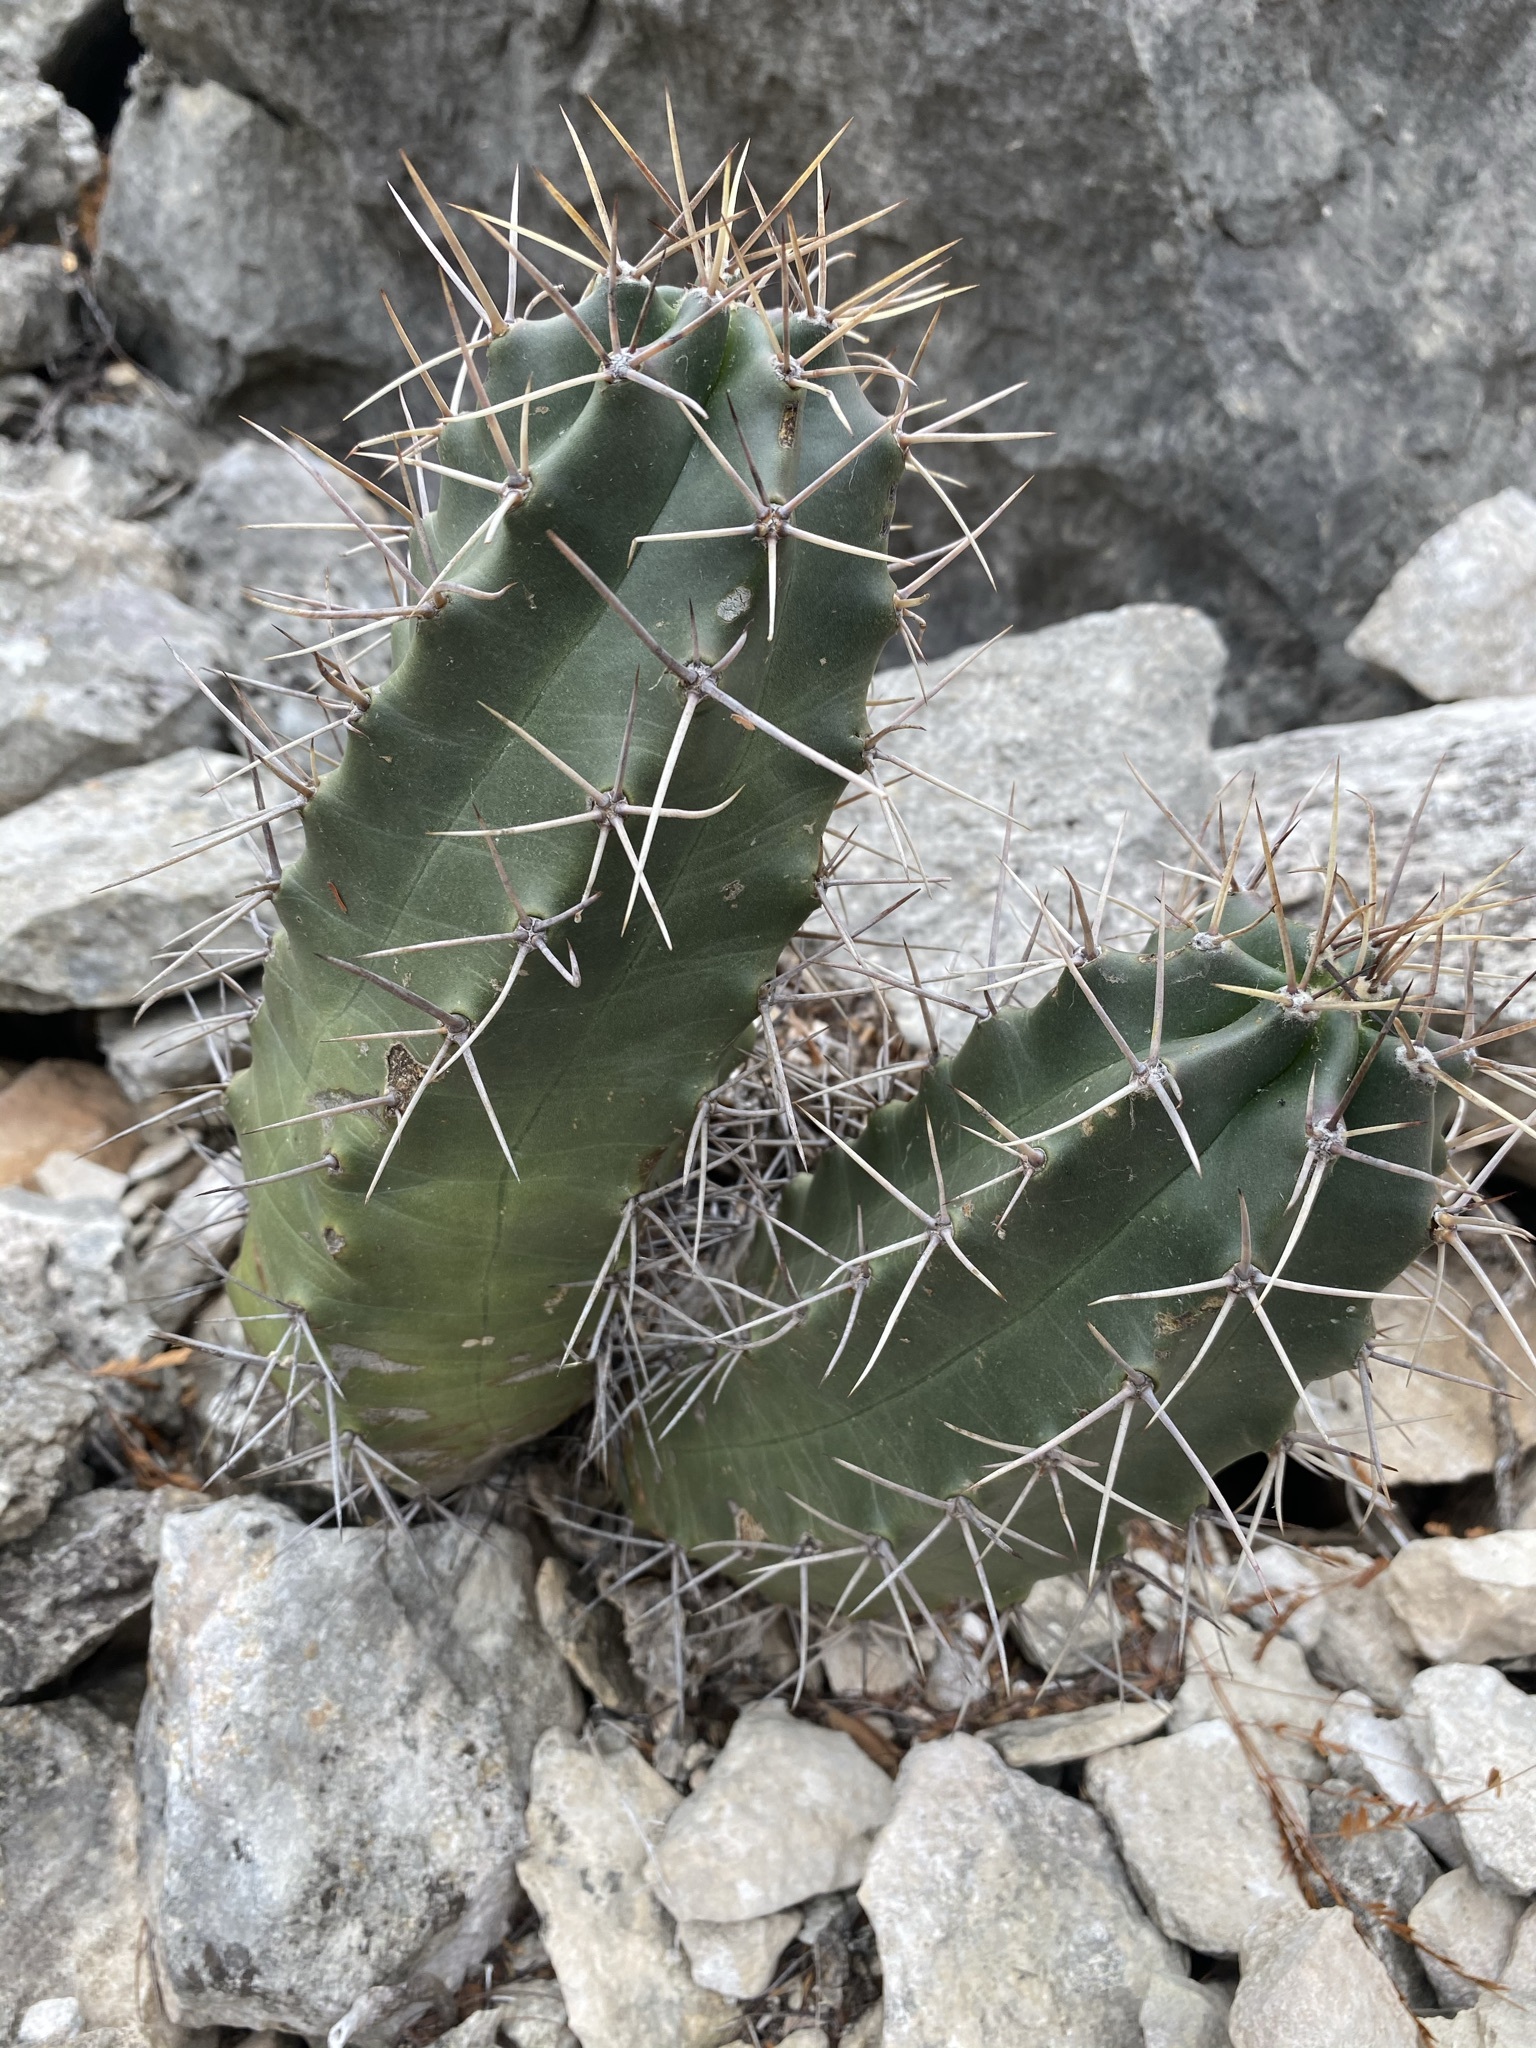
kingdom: Plantae
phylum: Tracheophyta
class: Magnoliopsida
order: Caryophyllales
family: Cactaceae
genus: Echinocereus
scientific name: Echinocereus coccineus
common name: Scarlet hedgehog cactus
